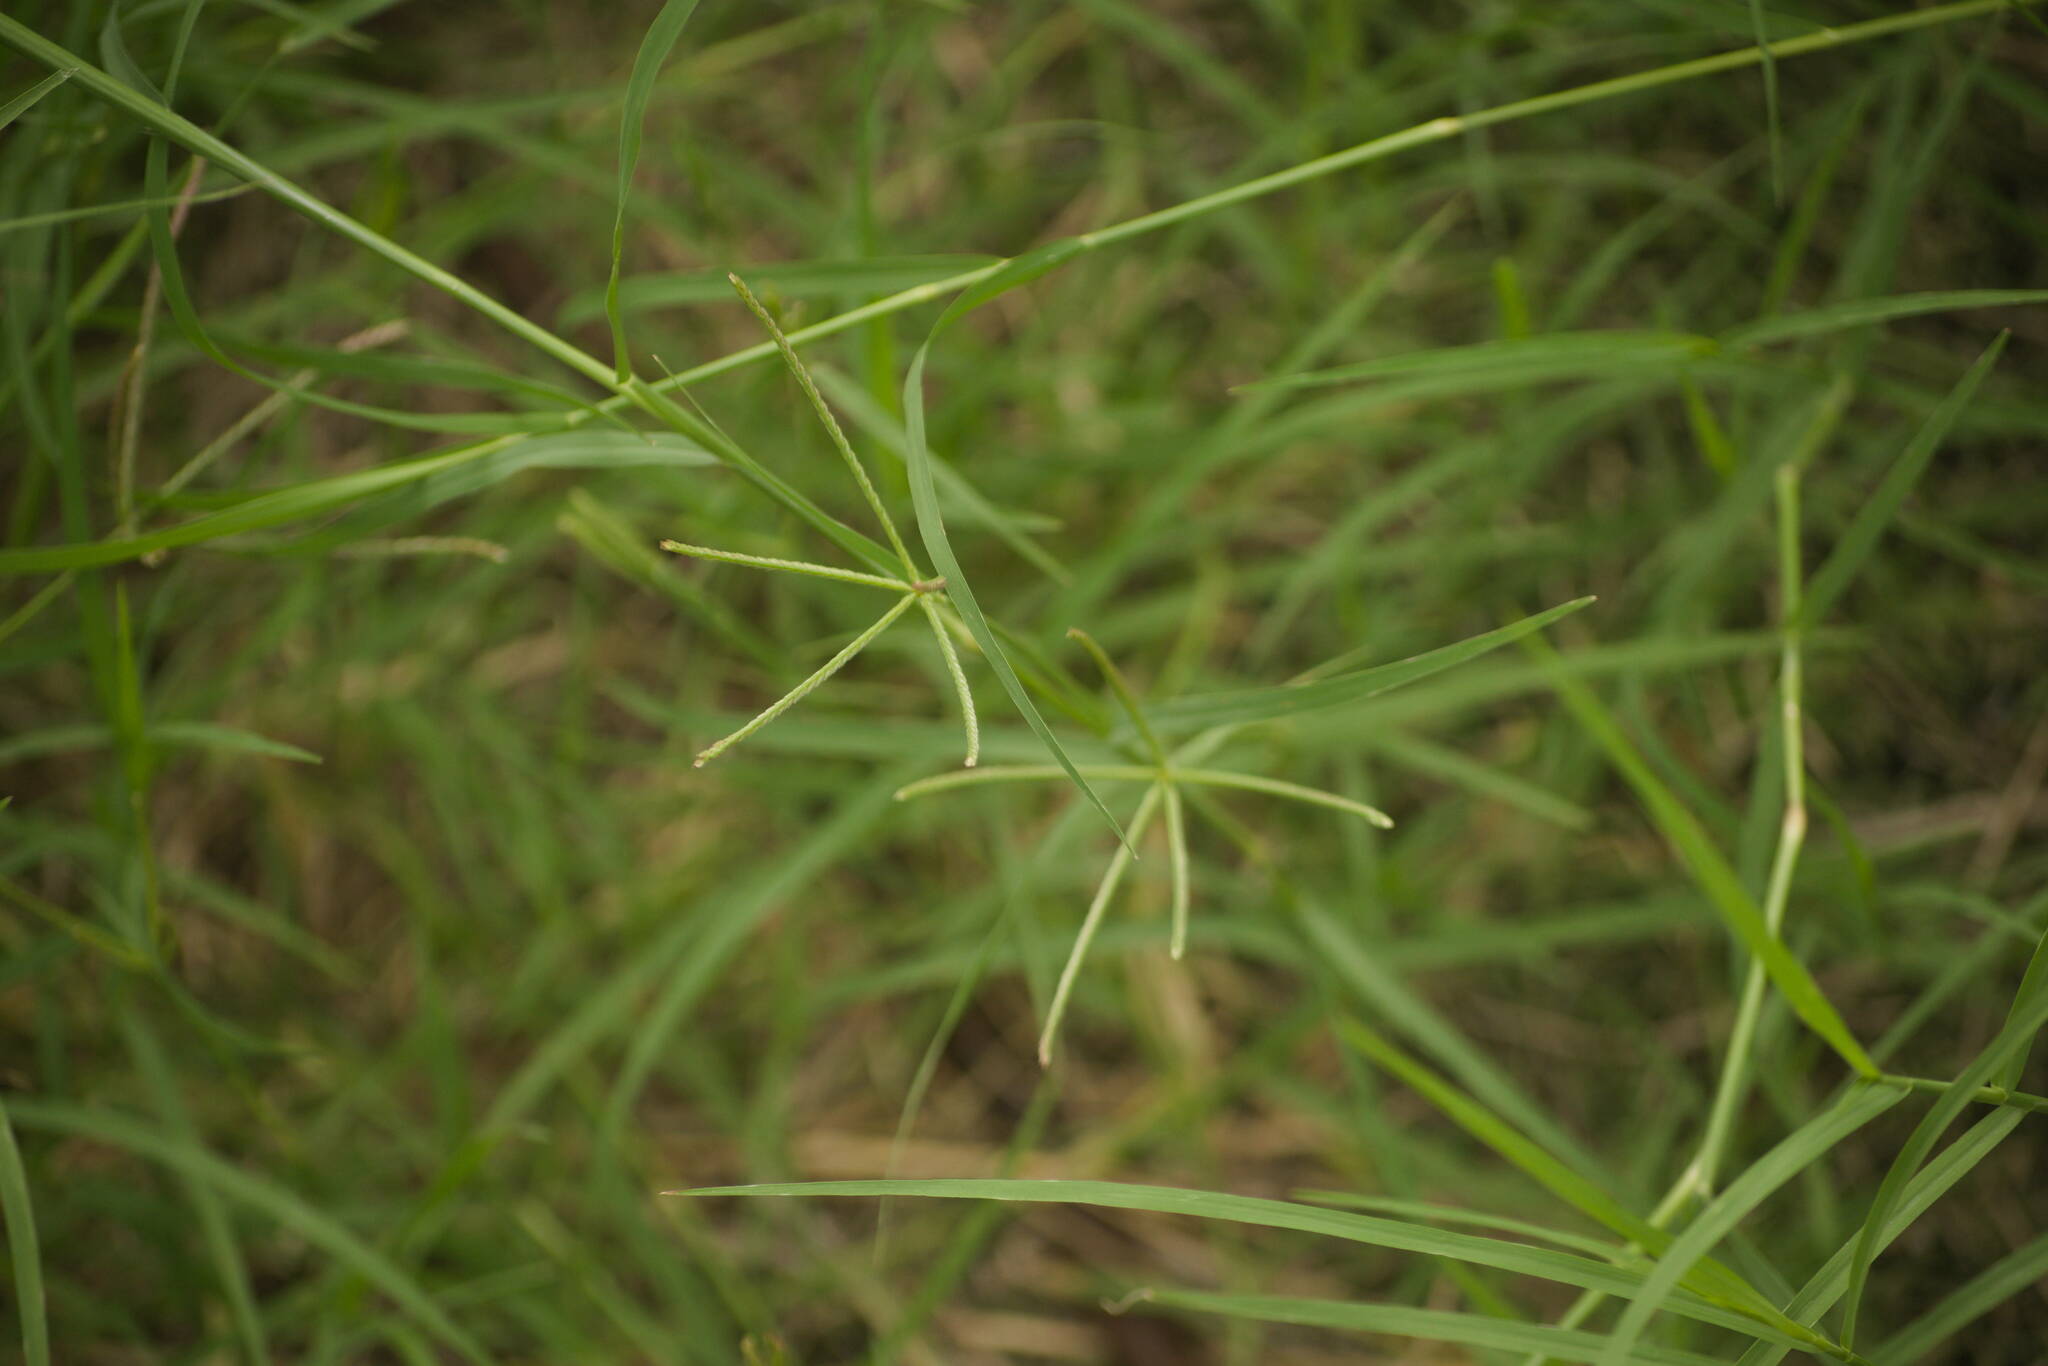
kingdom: Plantae
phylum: Tracheophyta
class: Liliopsida
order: Poales
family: Poaceae
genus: Cynodon
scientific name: Cynodon dactylon
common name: Bermuda grass
